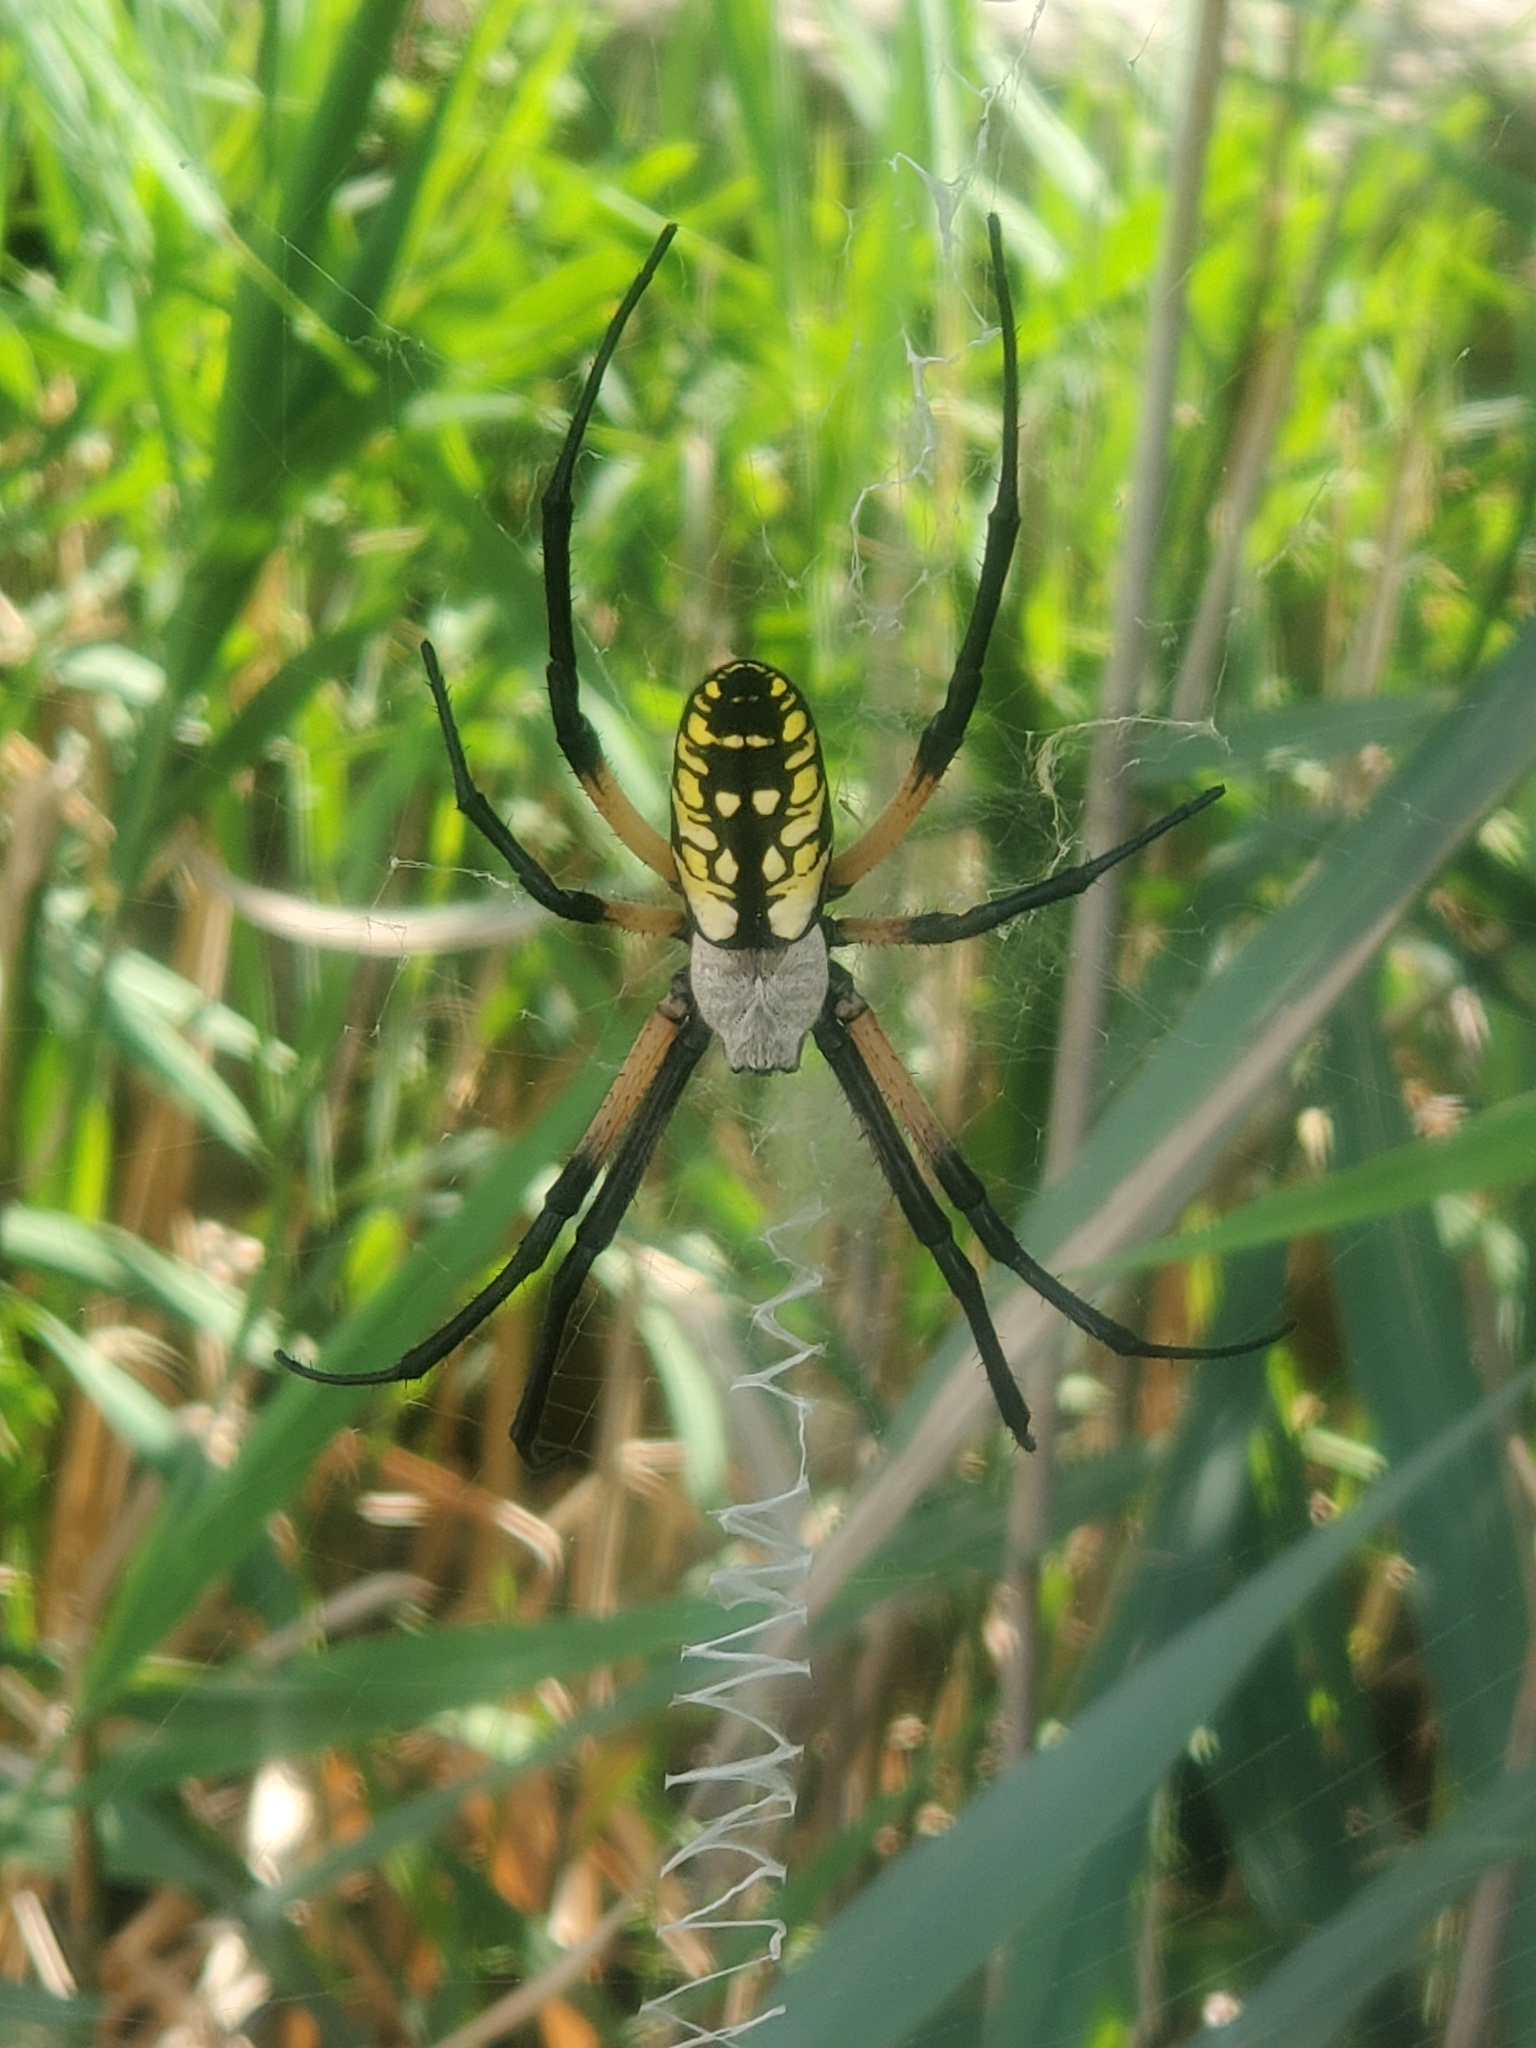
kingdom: Animalia
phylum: Arthropoda
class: Arachnida
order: Araneae
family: Araneidae
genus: Argiope
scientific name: Argiope aurantia
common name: Orb weavers
